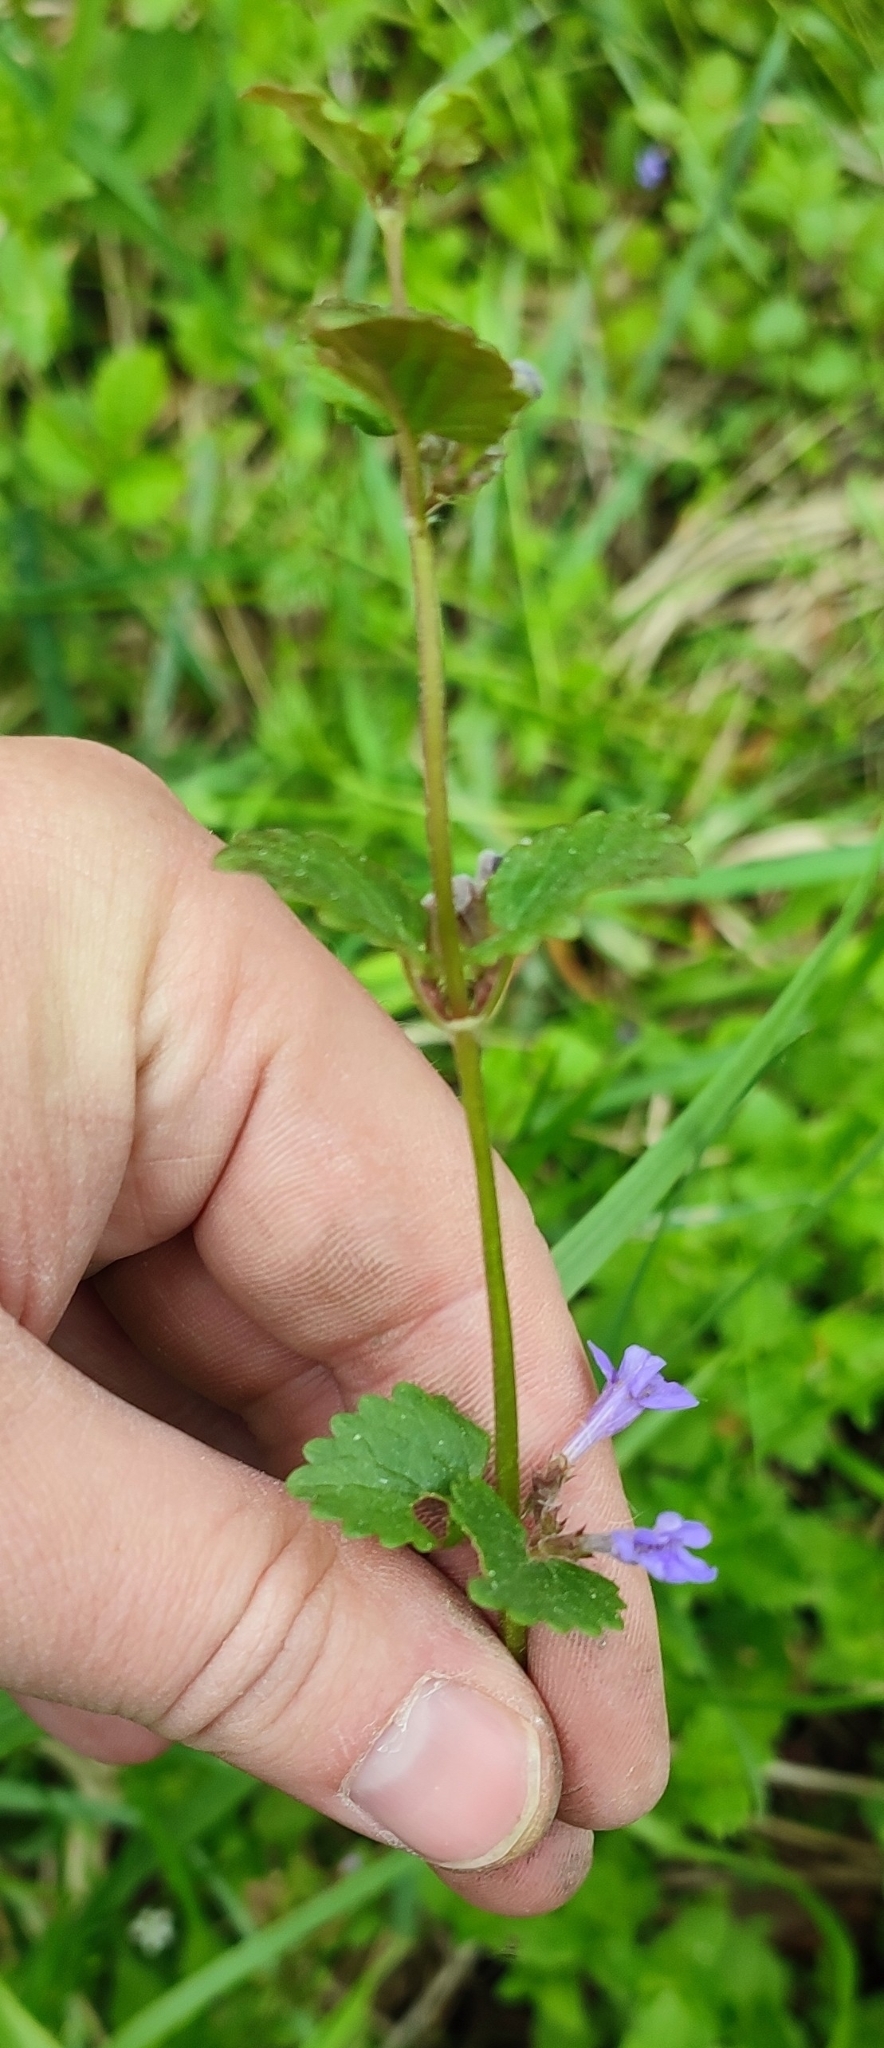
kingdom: Plantae
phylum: Tracheophyta
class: Magnoliopsida
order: Lamiales
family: Lamiaceae
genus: Glechoma
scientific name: Glechoma hederacea
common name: Ground ivy
